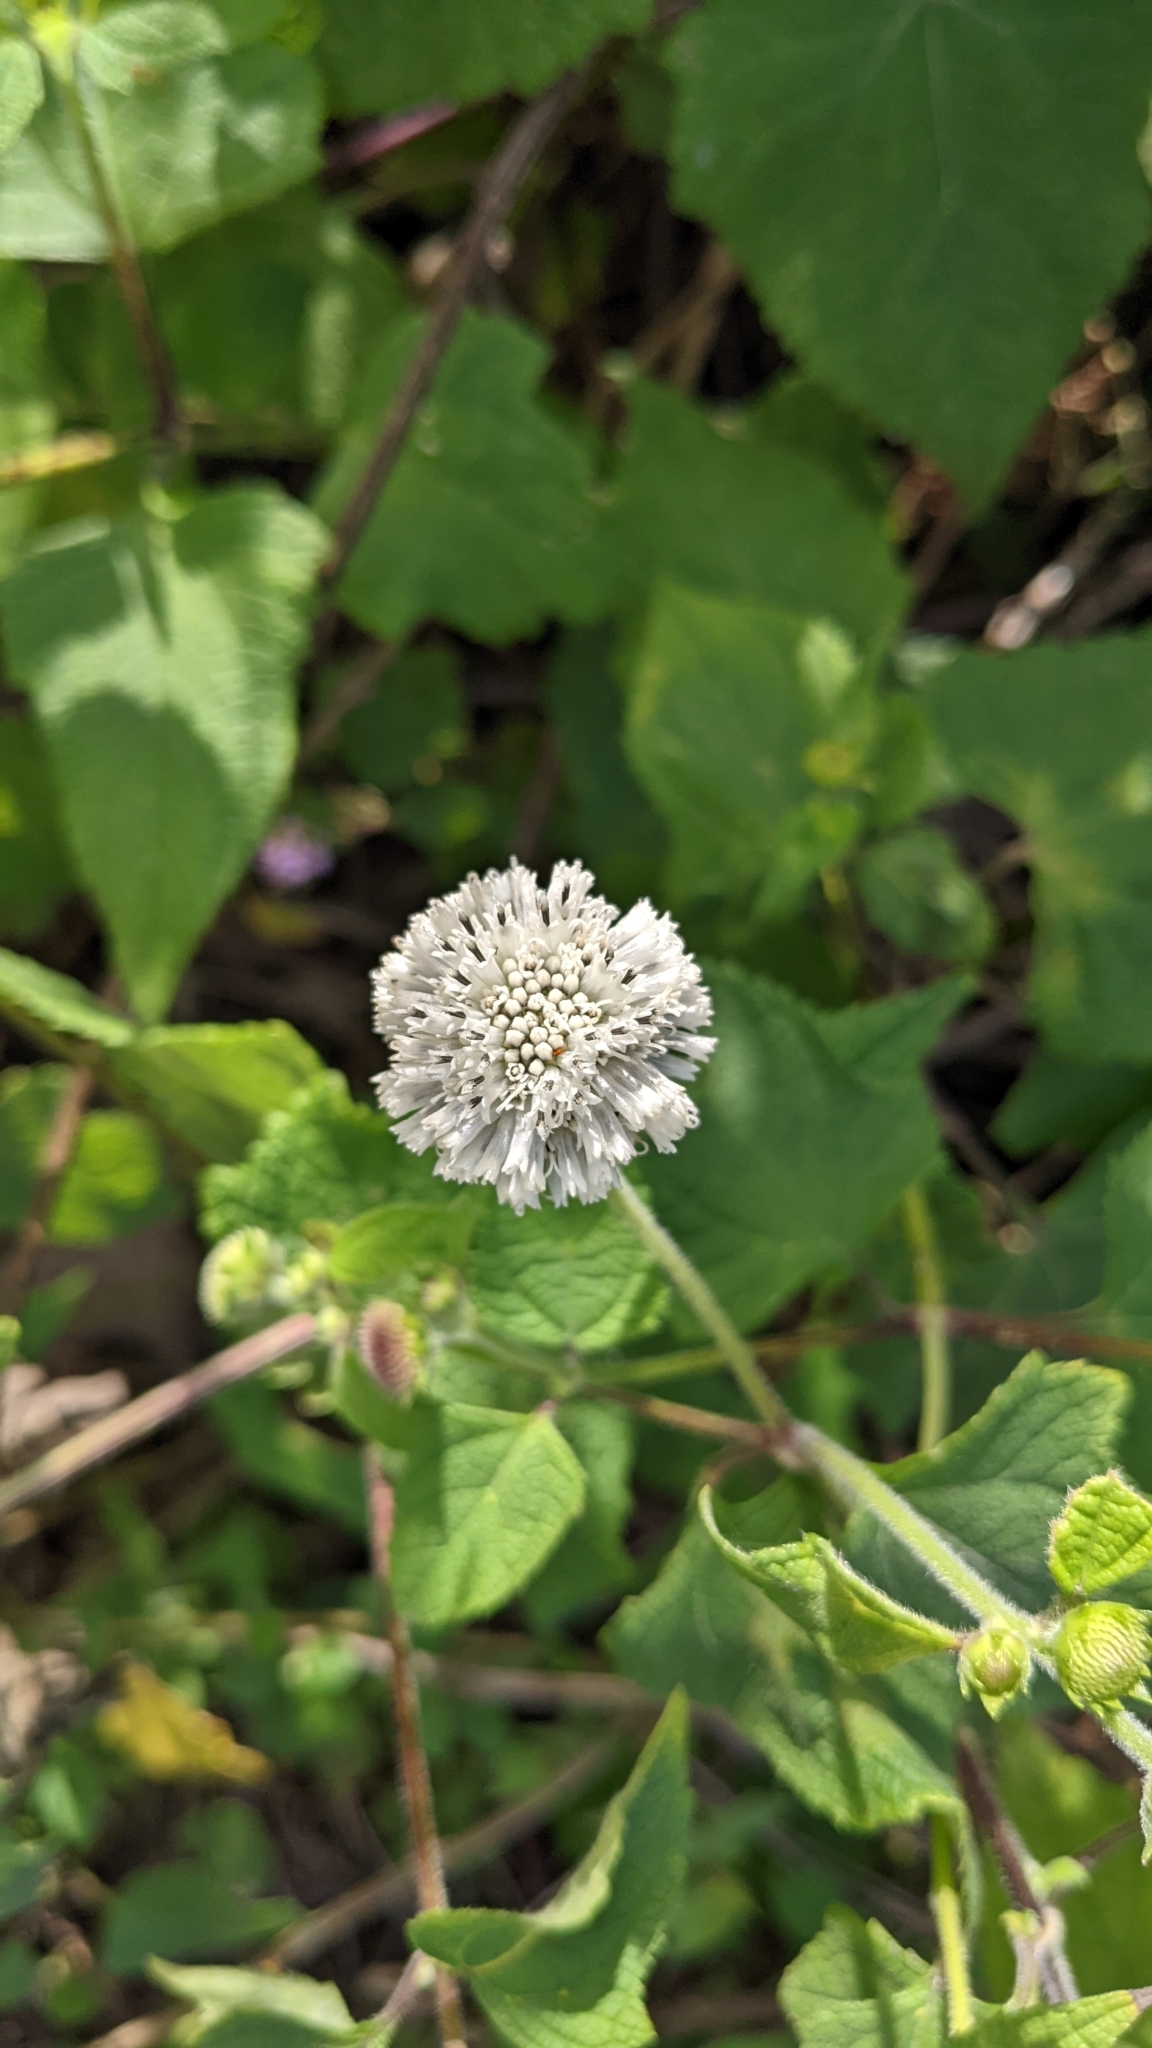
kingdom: Plantae
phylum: Tracheophyta
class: Magnoliopsida
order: Asterales
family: Asteraceae
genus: Melanthera
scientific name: Melanthera nivea
